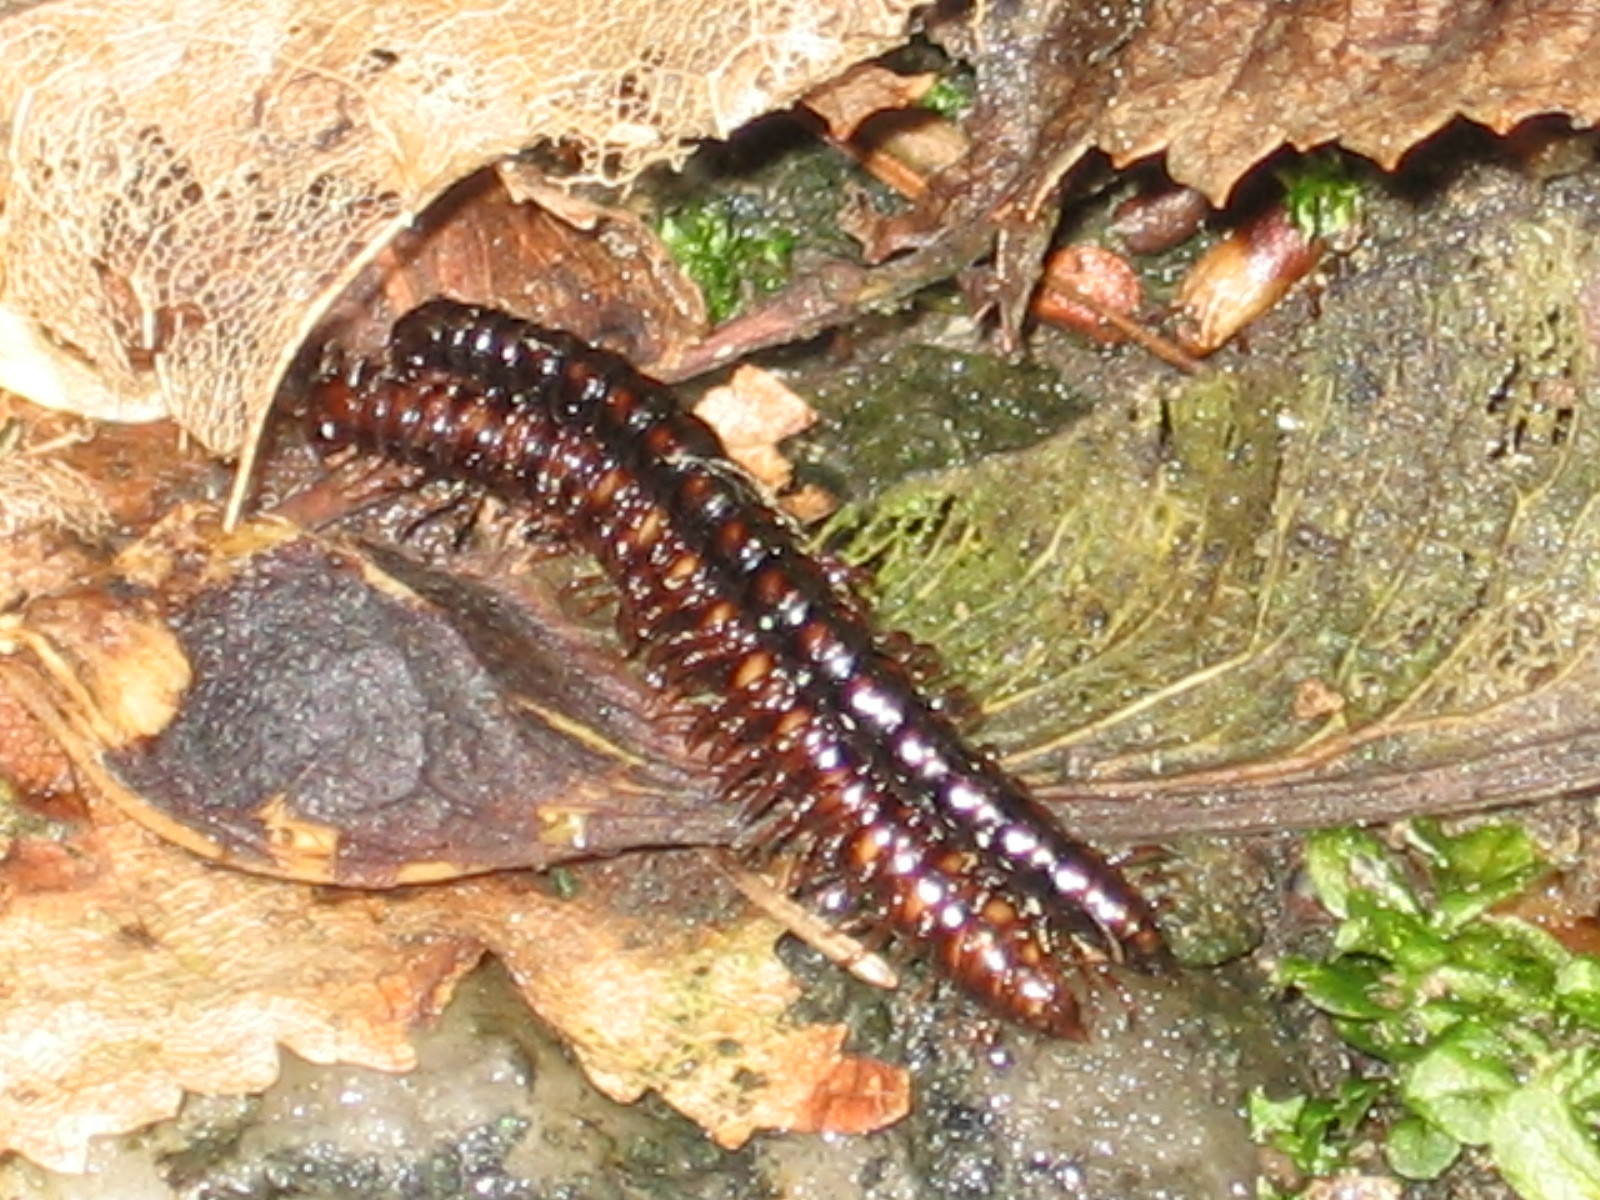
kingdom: Animalia
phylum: Arthropoda
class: Diplopoda
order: Polydesmida
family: Paradoxosomatidae
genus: Strongylosoma
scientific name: Strongylosoma stigmatosus
